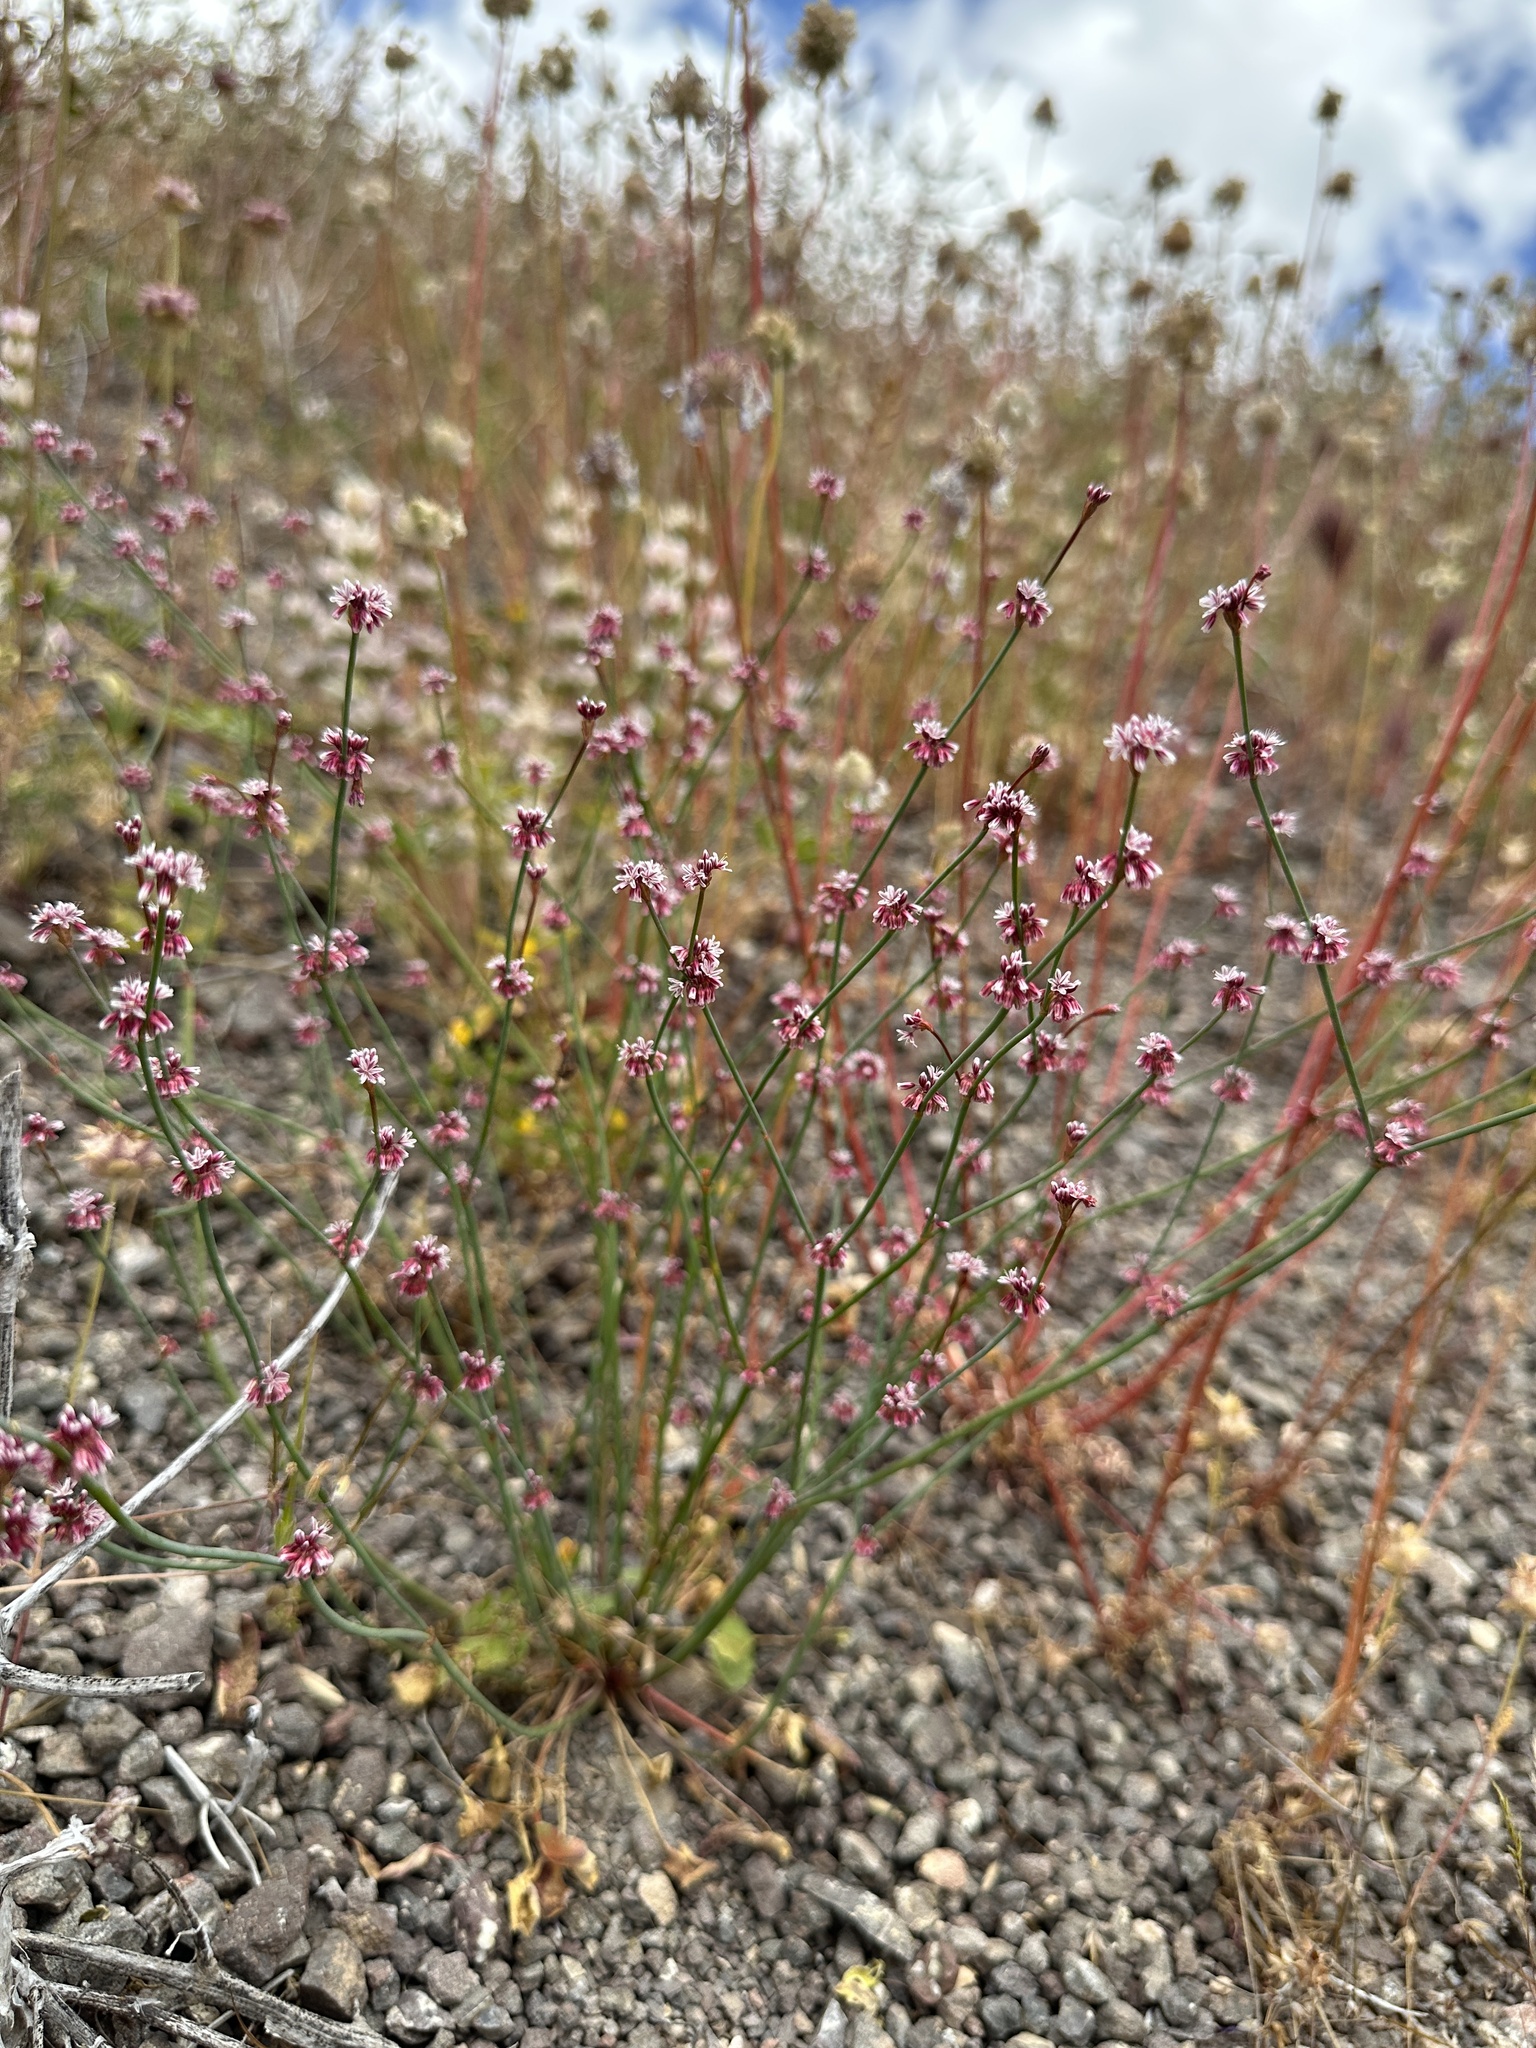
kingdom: Plantae
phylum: Tracheophyta
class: Magnoliopsida
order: Caryophyllales
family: Polygonaceae
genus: Eriogonum
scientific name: Eriogonum covilleanum
